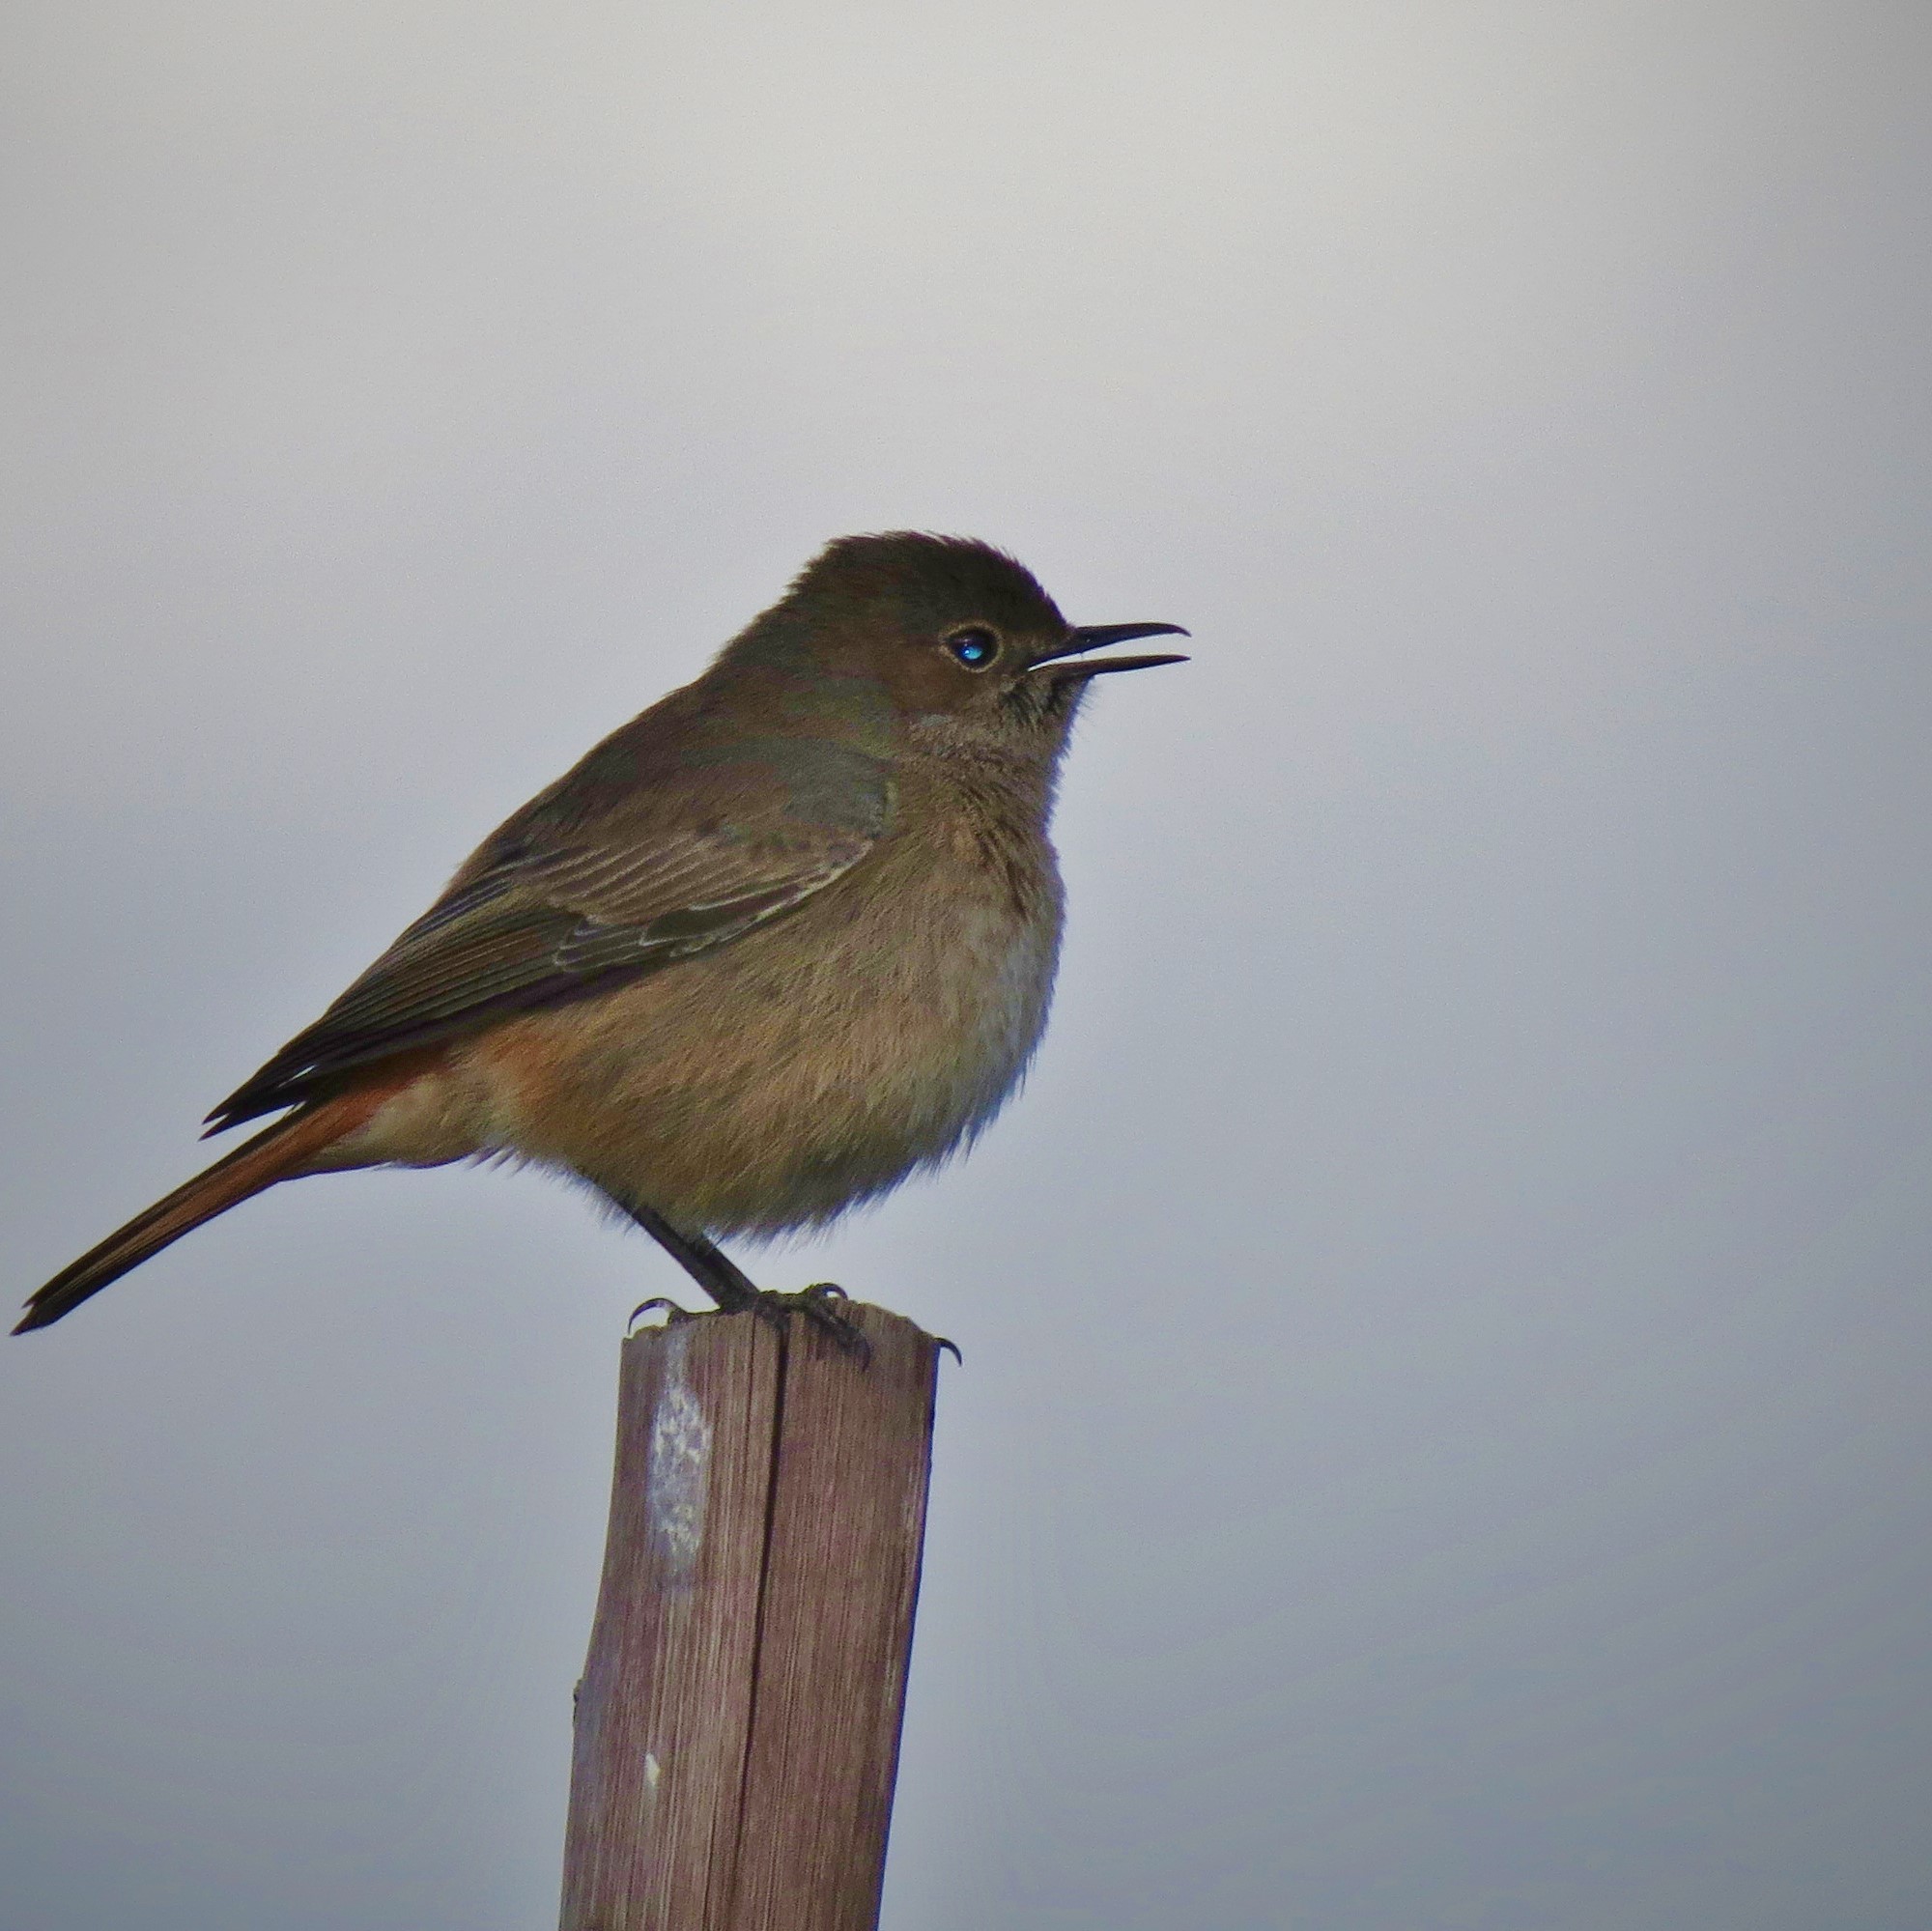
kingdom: Animalia
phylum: Chordata
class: Aves
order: Passeriformes
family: Muscicapidae
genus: Oenanthe
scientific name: Oenanthe familiaris
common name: Familiar chat
